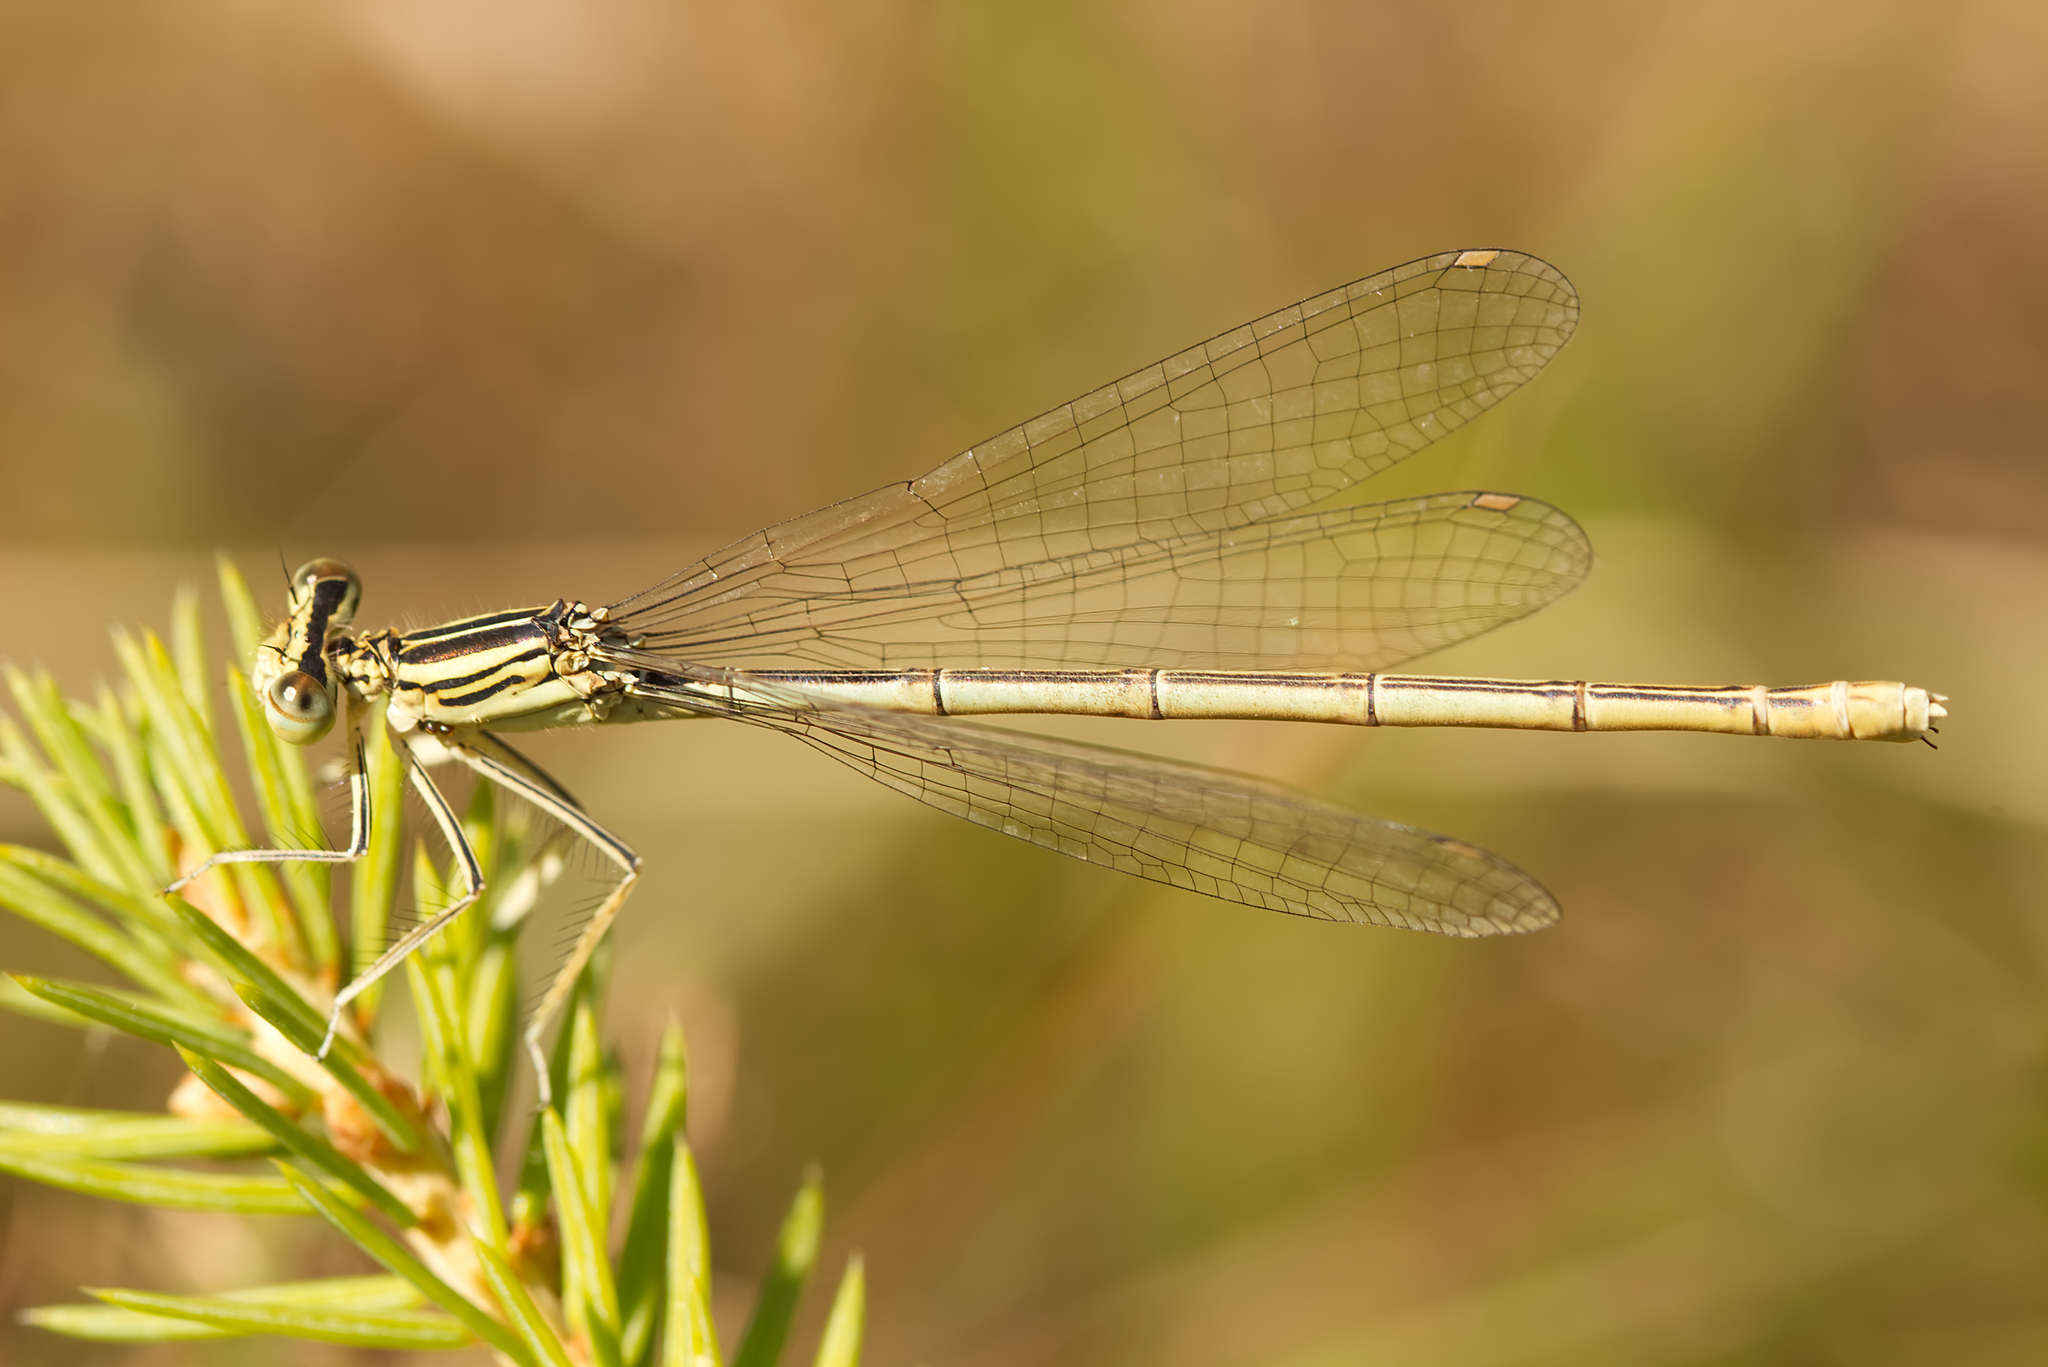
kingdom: Animalia
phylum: Arthropoda
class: Insecta
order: Odonata
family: Platycnemididae
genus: Platycnemis
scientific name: Platycnemis pennipes
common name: White-legged damselfly
